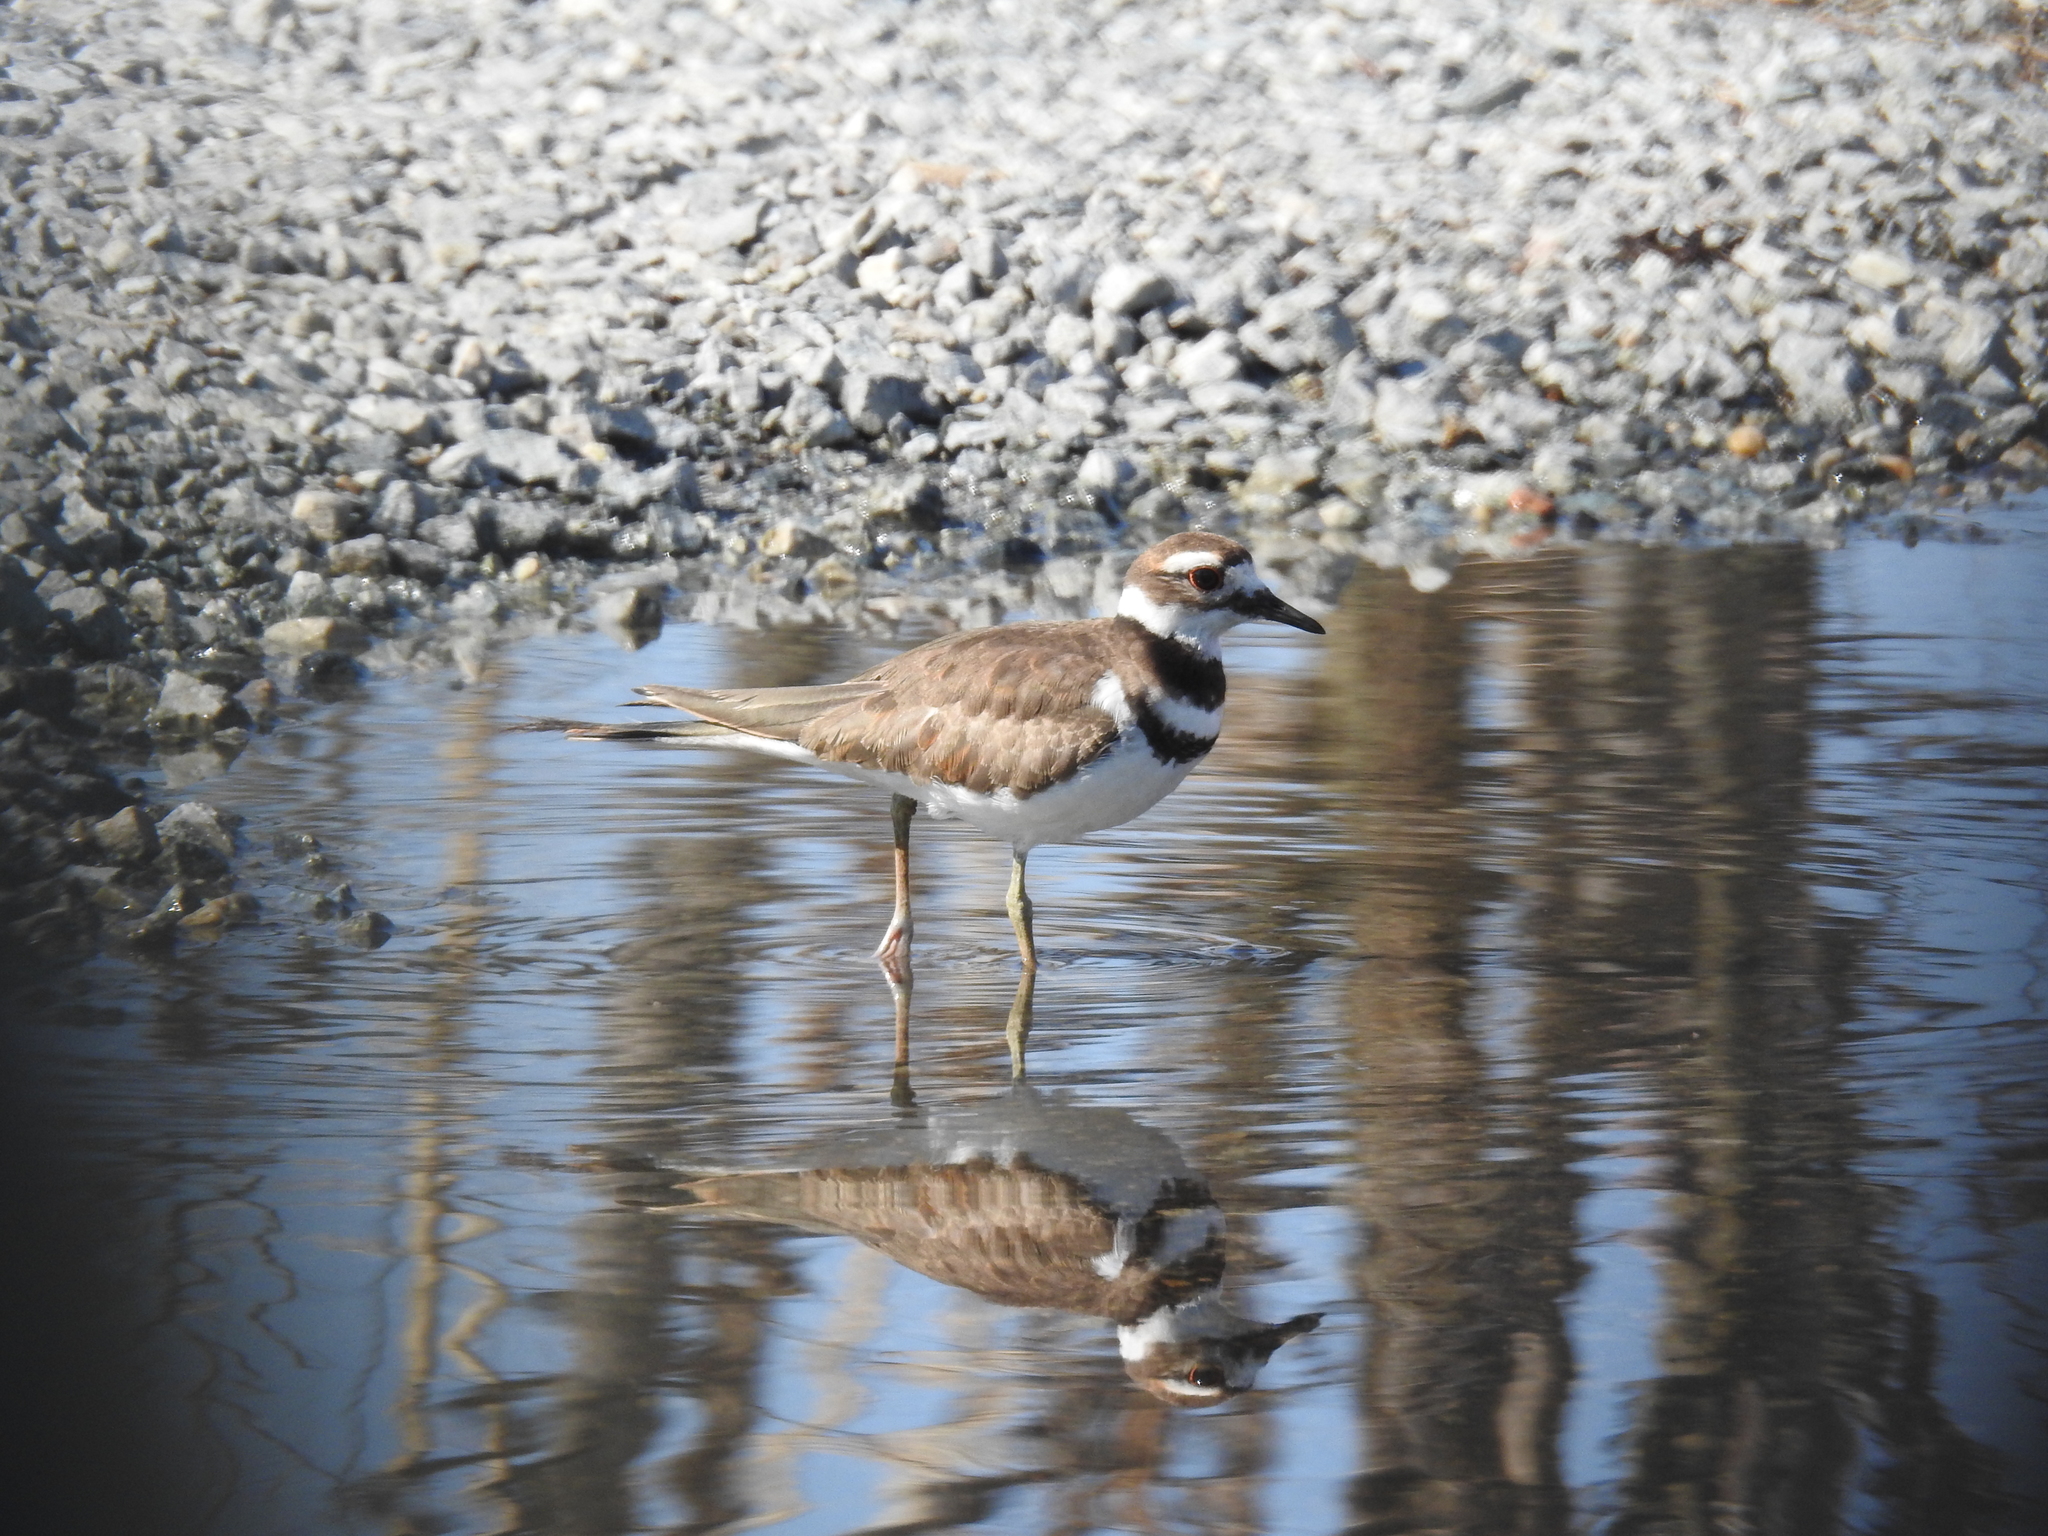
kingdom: Animalia
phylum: Chordata
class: Aves
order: Charadriiformes
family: Charadriidae
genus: Charadrius
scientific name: Charadrius vociferus
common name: Killdeer
